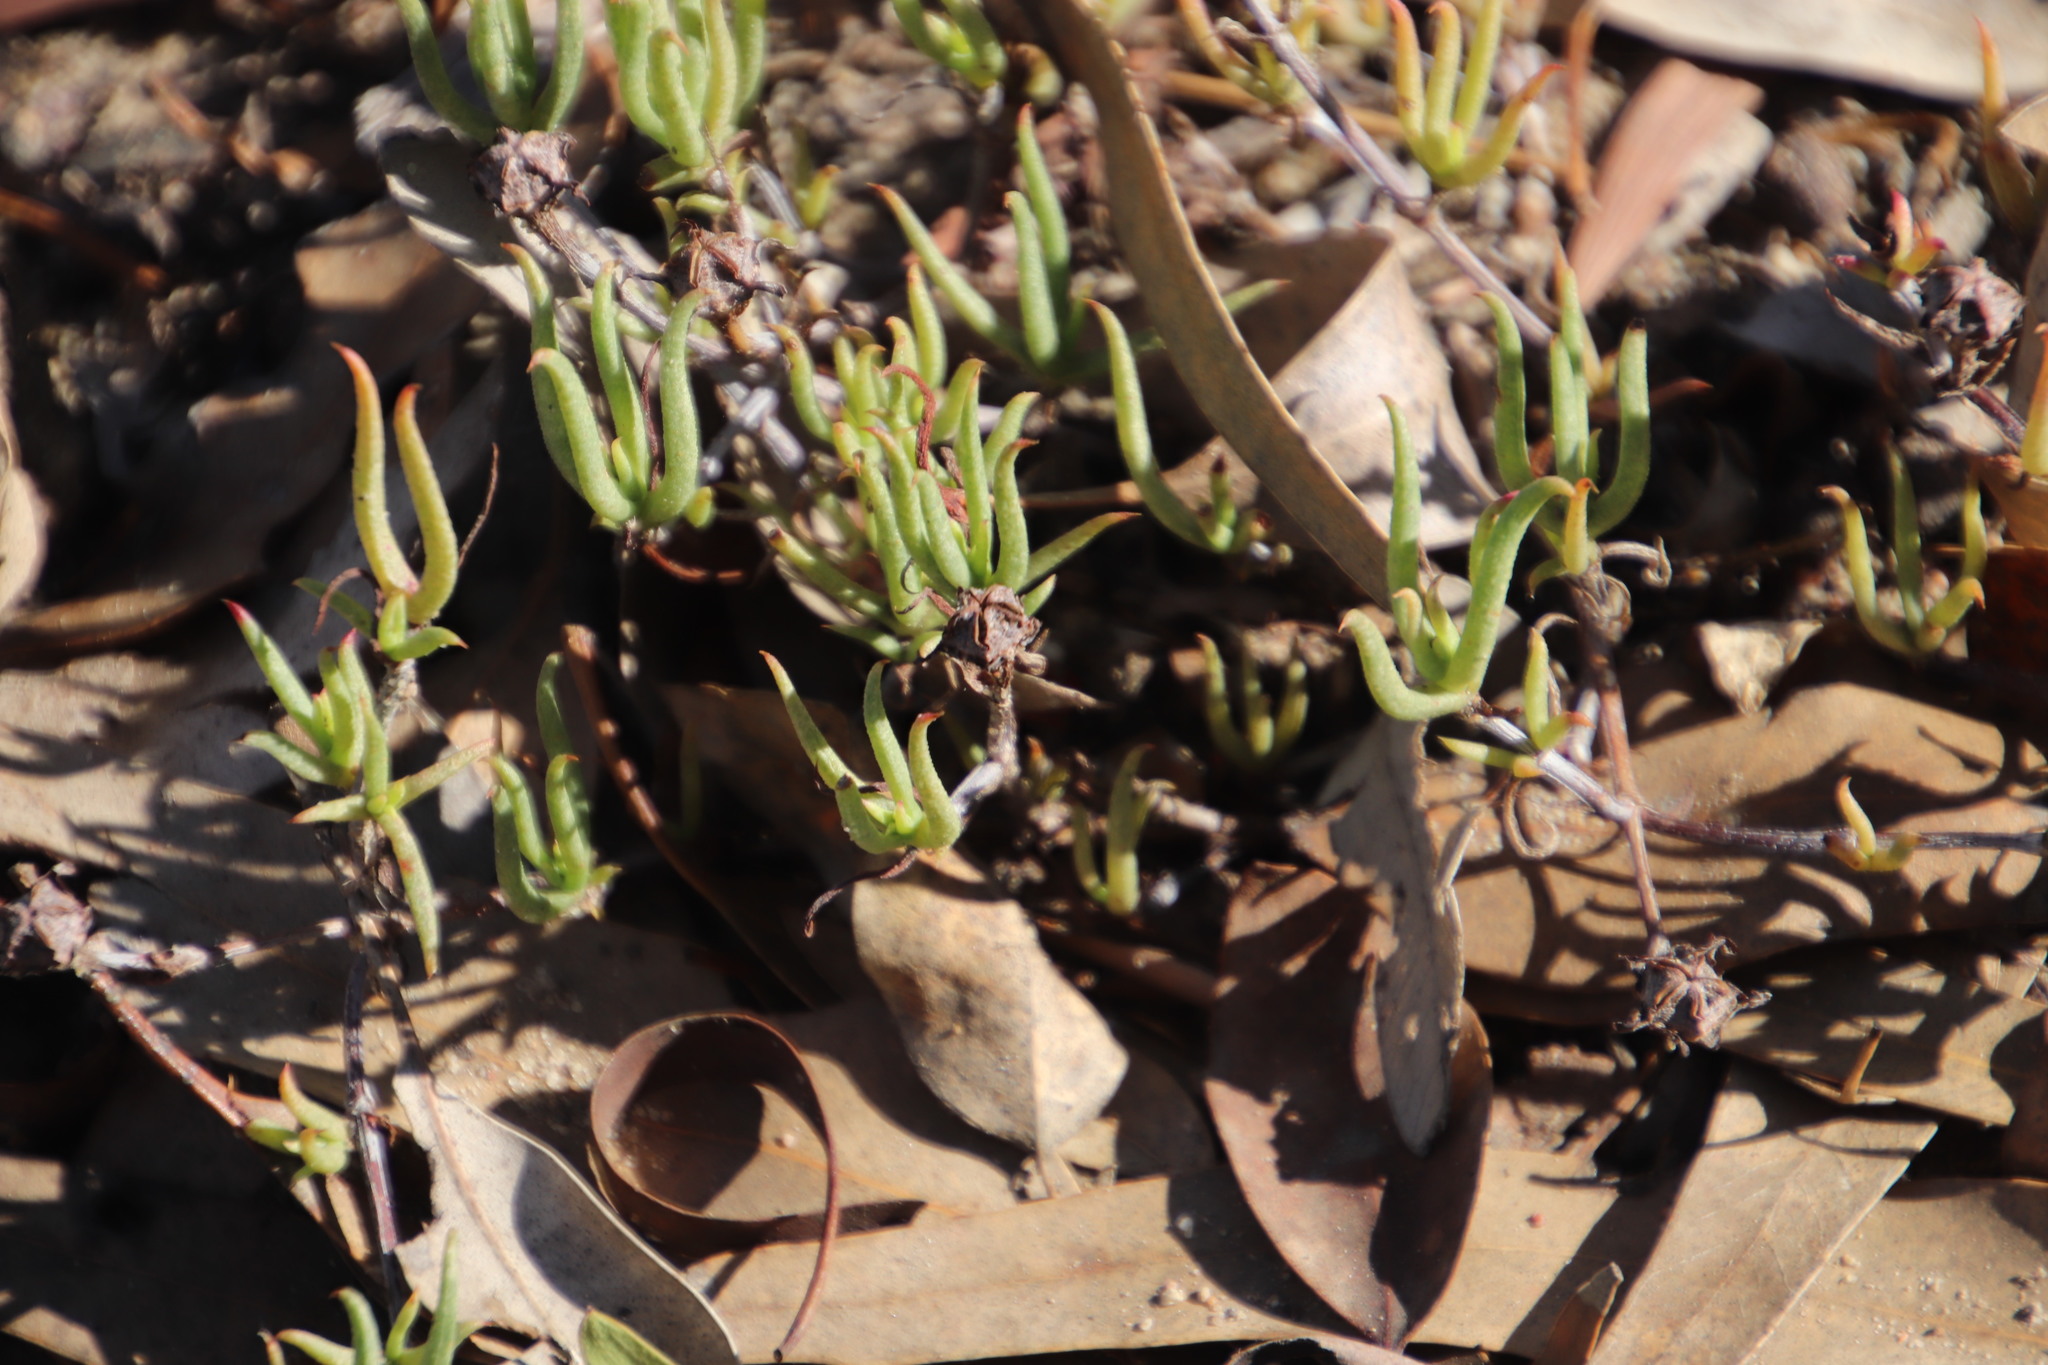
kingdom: Plantae
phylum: Tracheophyta
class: Magnoliopsida
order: Caryophyllales
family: Aizoaceae
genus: Lampranthus
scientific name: Lampranthus spiniformis
